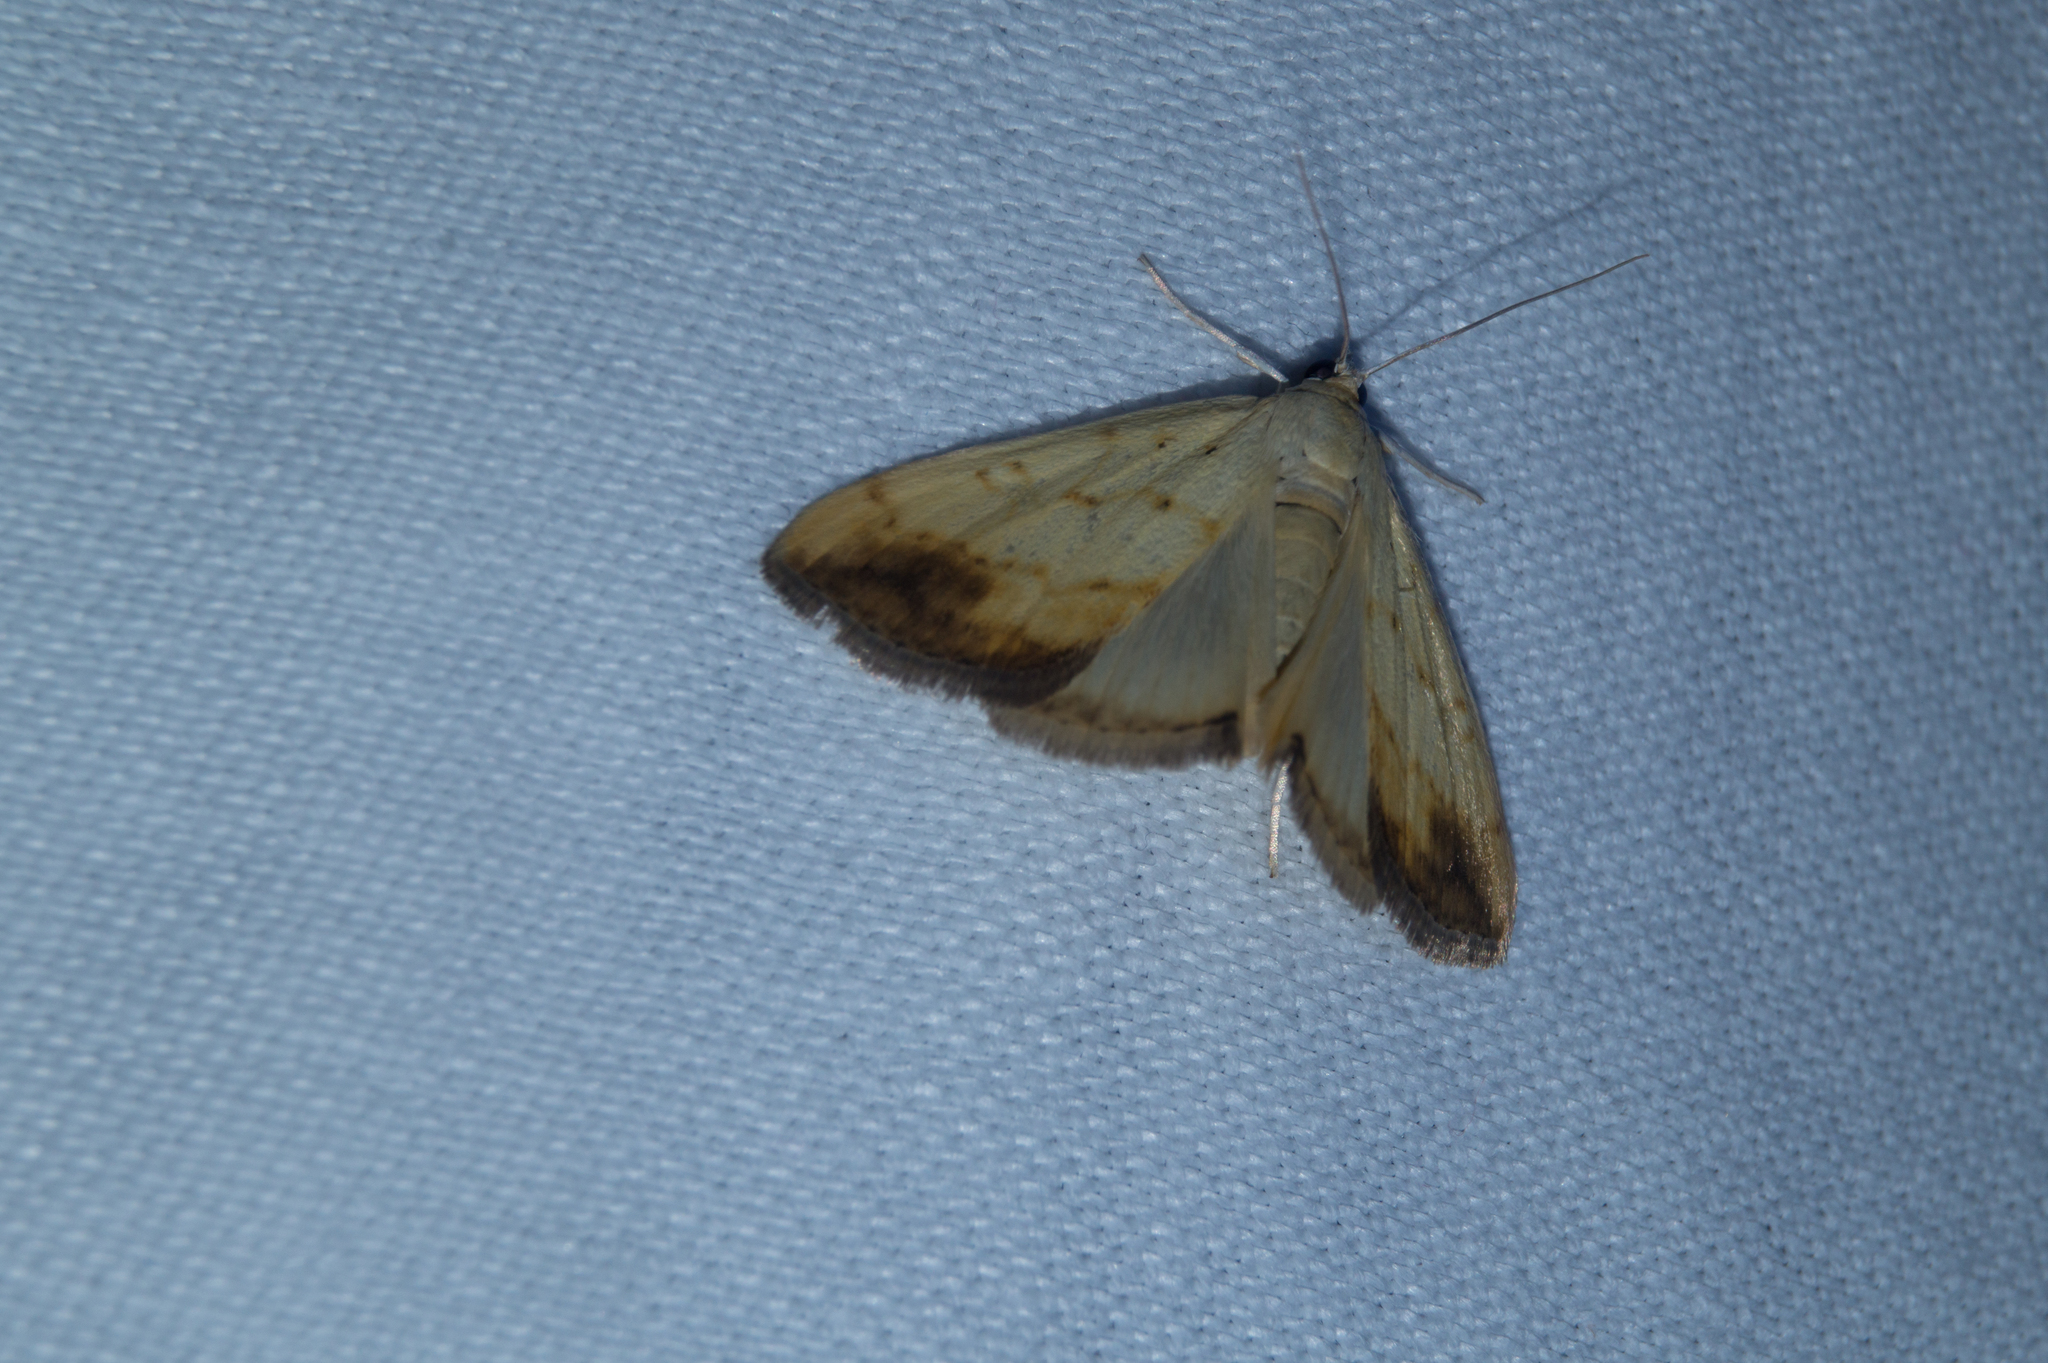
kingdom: Animalia
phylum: Arthropoda
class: Insecta
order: Lepidoptera
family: Crambidae
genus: Evergestis
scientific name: Evergestis extimalis
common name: Marbled yellow pearl
